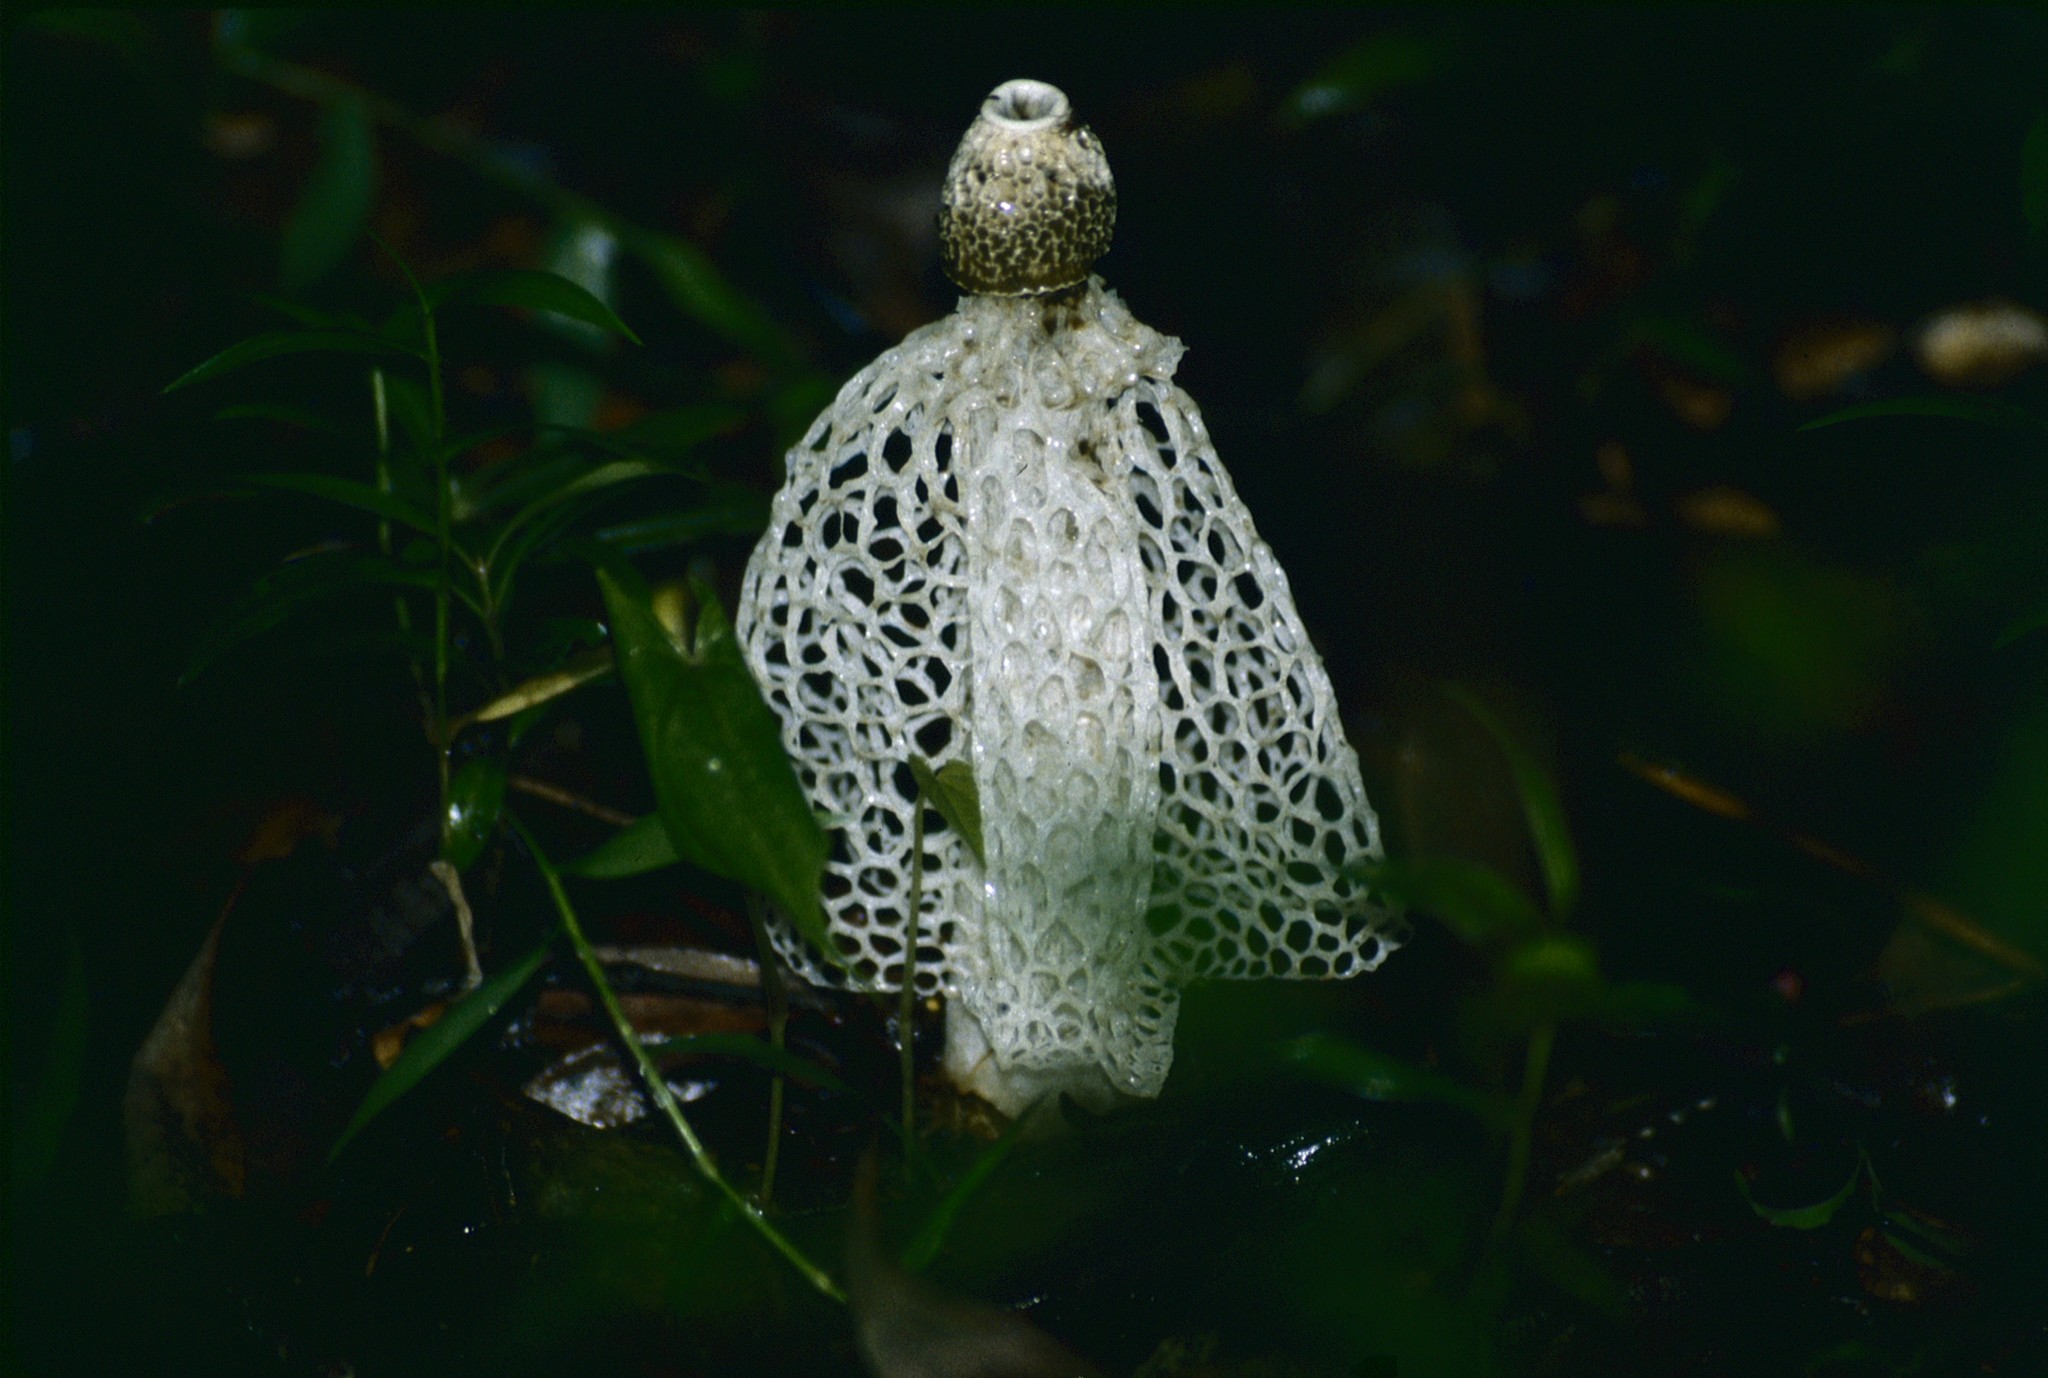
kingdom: Fungi
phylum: Basidiomycota
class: Agaricomycetes
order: Phallales
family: Phallaceae
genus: Phallus
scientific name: Phallus indusiatus
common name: Bridal veil stinkhorn
